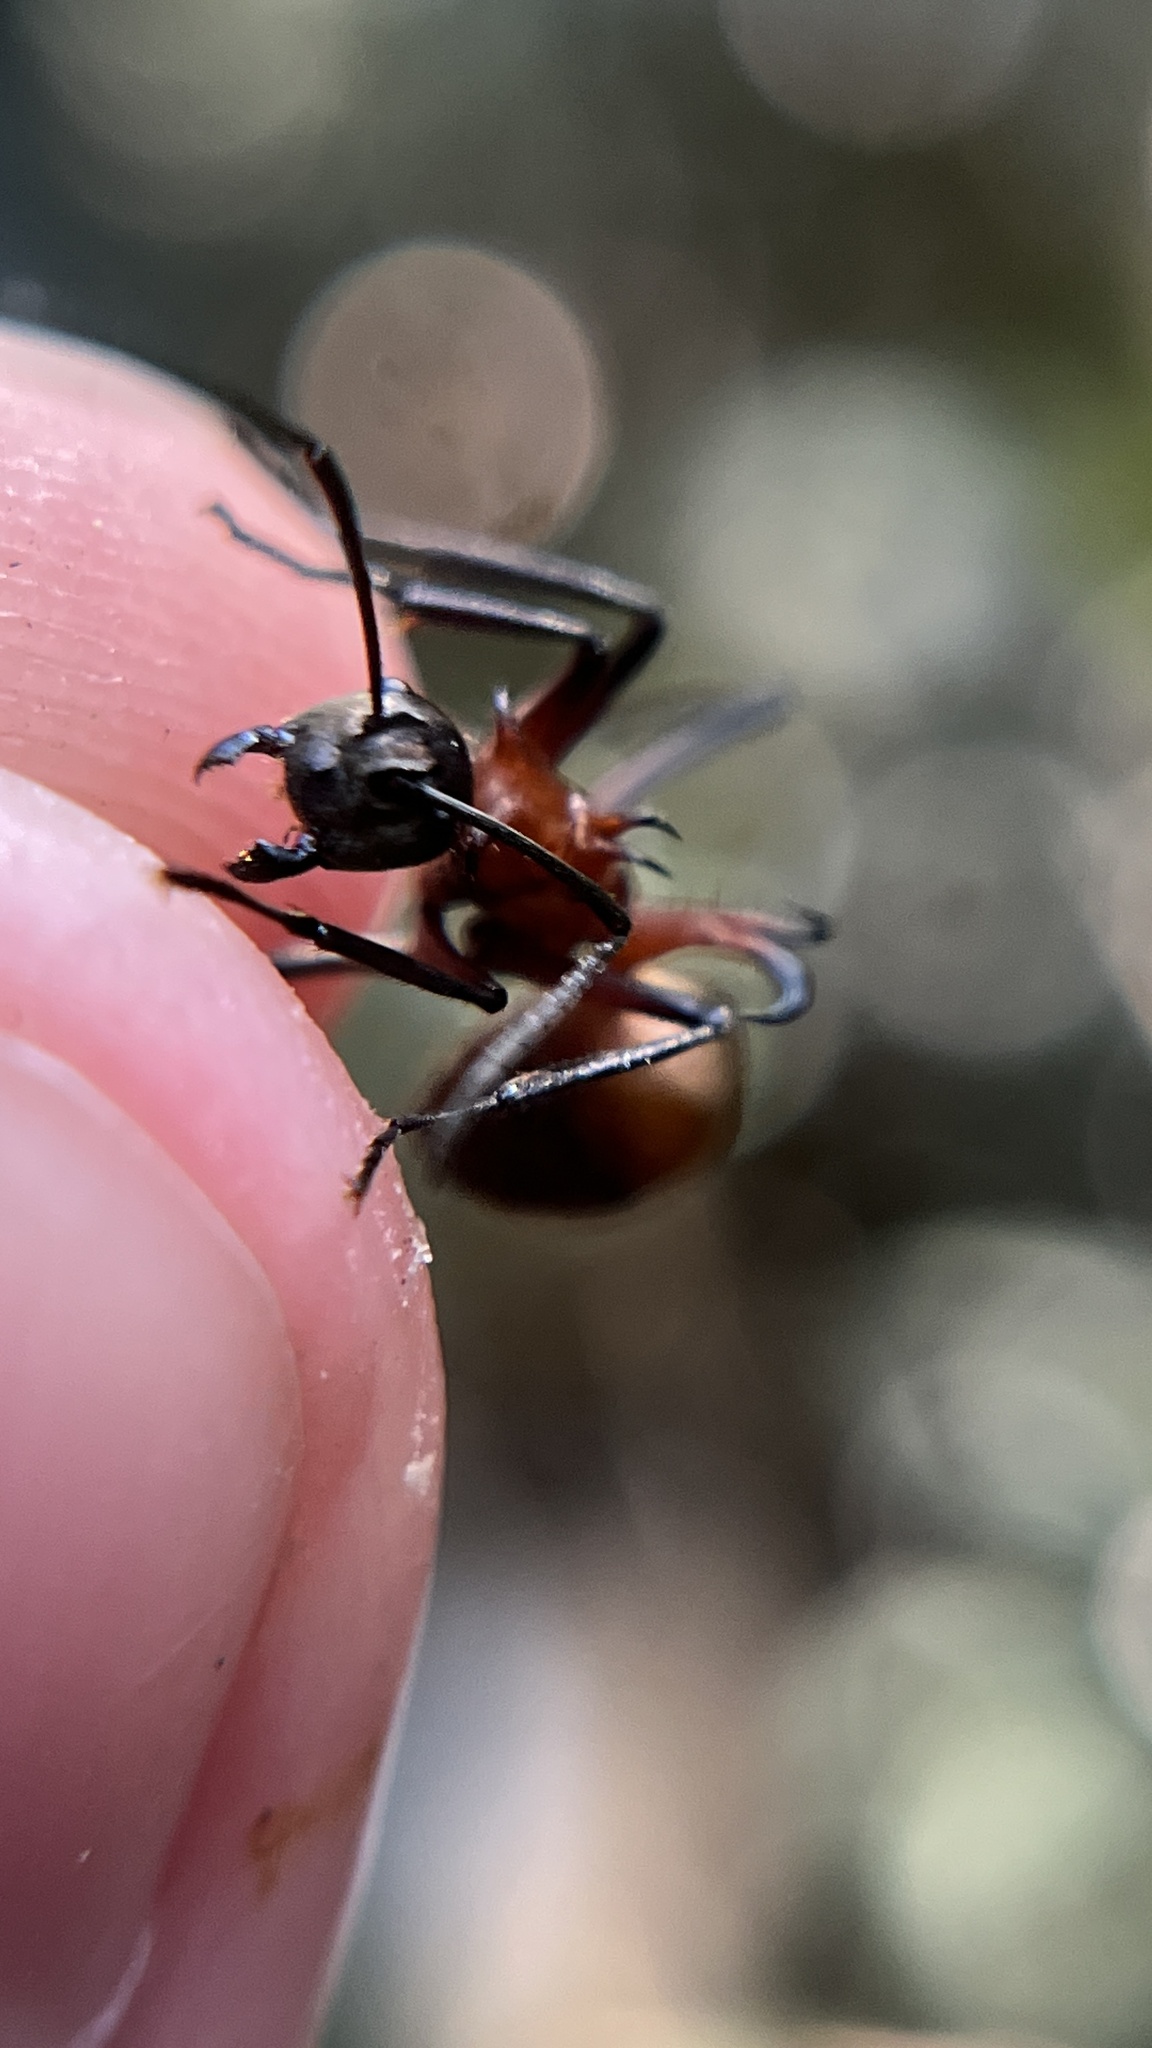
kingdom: Animalia
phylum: Arthropoda
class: Insecta
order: Hymenoptera
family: Formicidae
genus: Polyrhachis
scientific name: Polyrhachis bihamata
